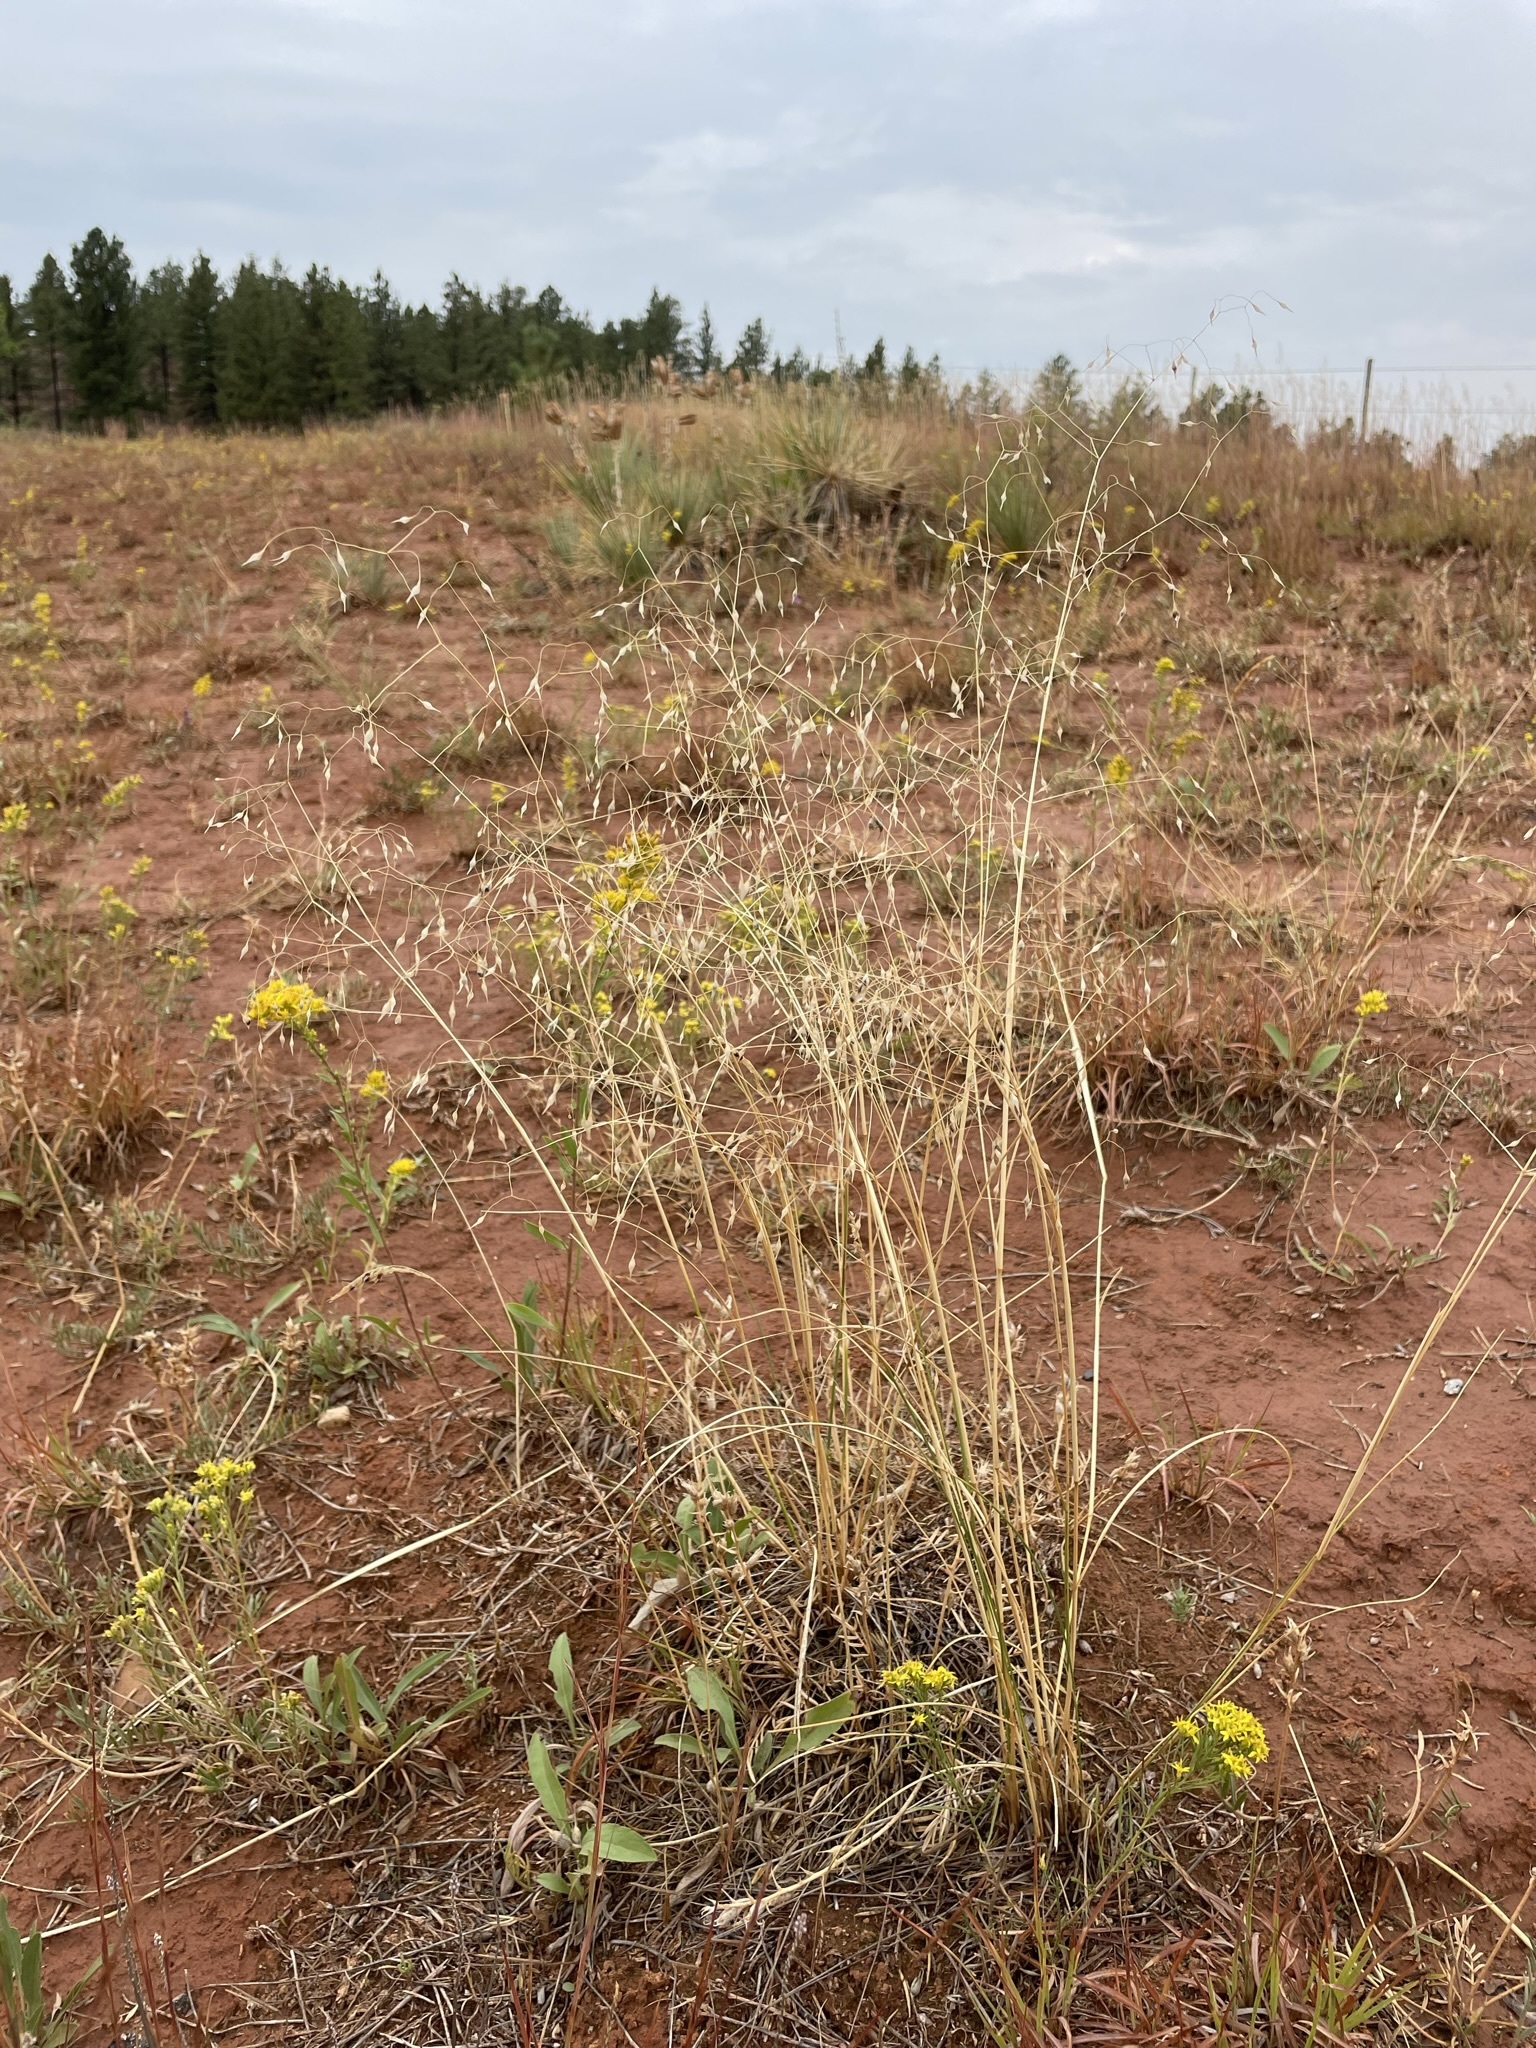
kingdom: Plantae
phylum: Tracheophyta
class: Liliopsida
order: Poales
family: Poaceae
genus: Eriocoma
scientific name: Eriocoma hymenoides
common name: Indian mountain ricegrass
